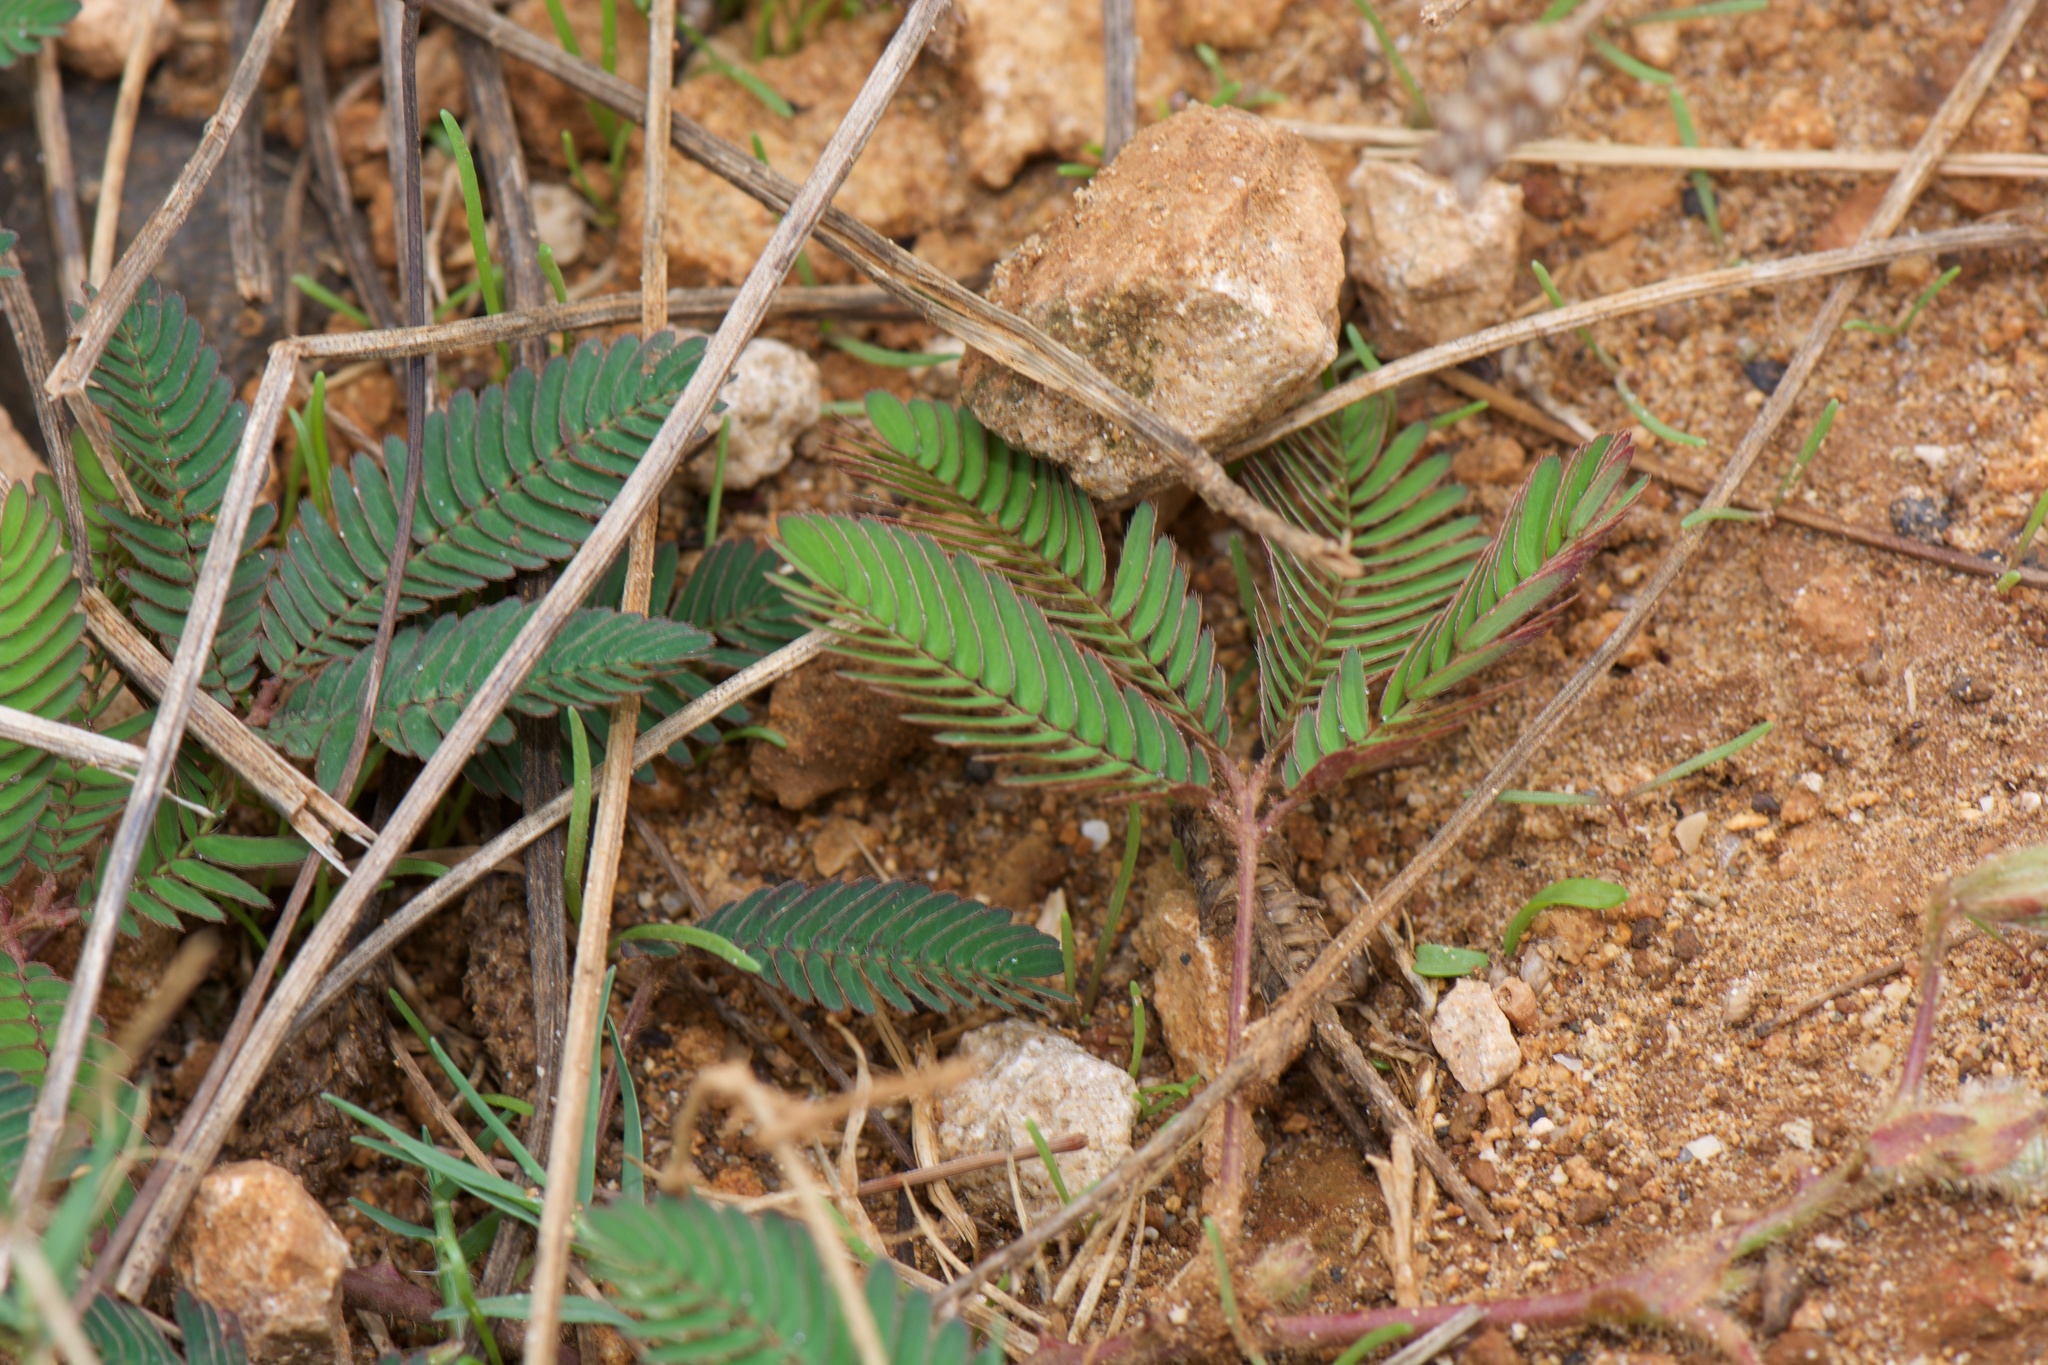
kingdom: Plantae
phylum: Tracheophyta
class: Magnoliopsida
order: Fabales
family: Fabaceae
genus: Mimosa
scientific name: Mimosa pudica
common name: Sensitive plant
